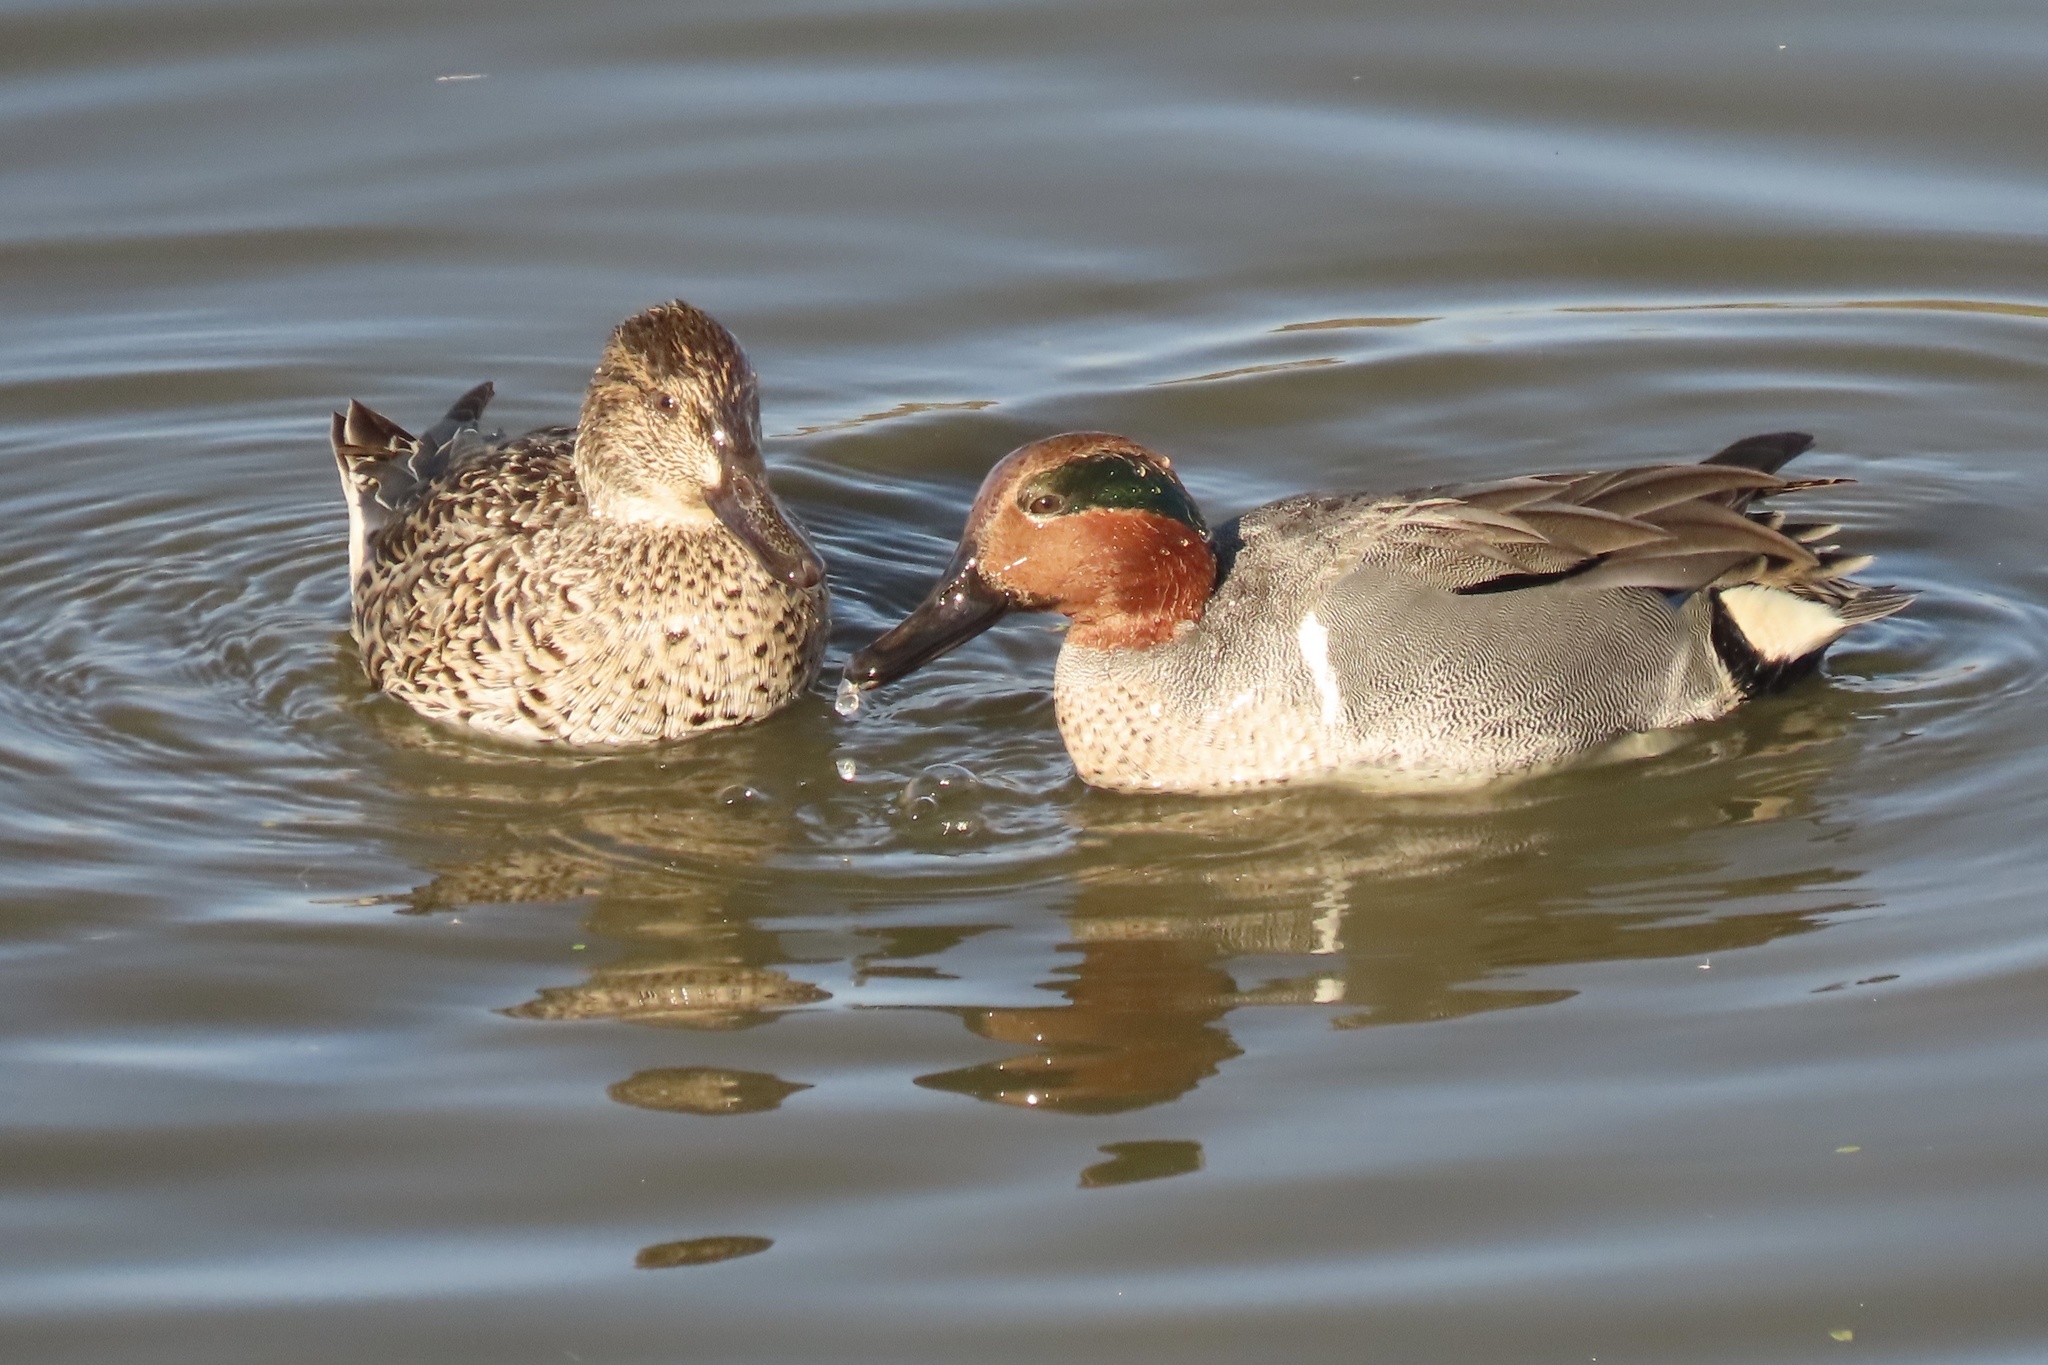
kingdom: Animalia
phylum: Chordata
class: Aves
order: Anseriformes
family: Anatidae
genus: Anas
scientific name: Anas crecca
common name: Eurasian teal
